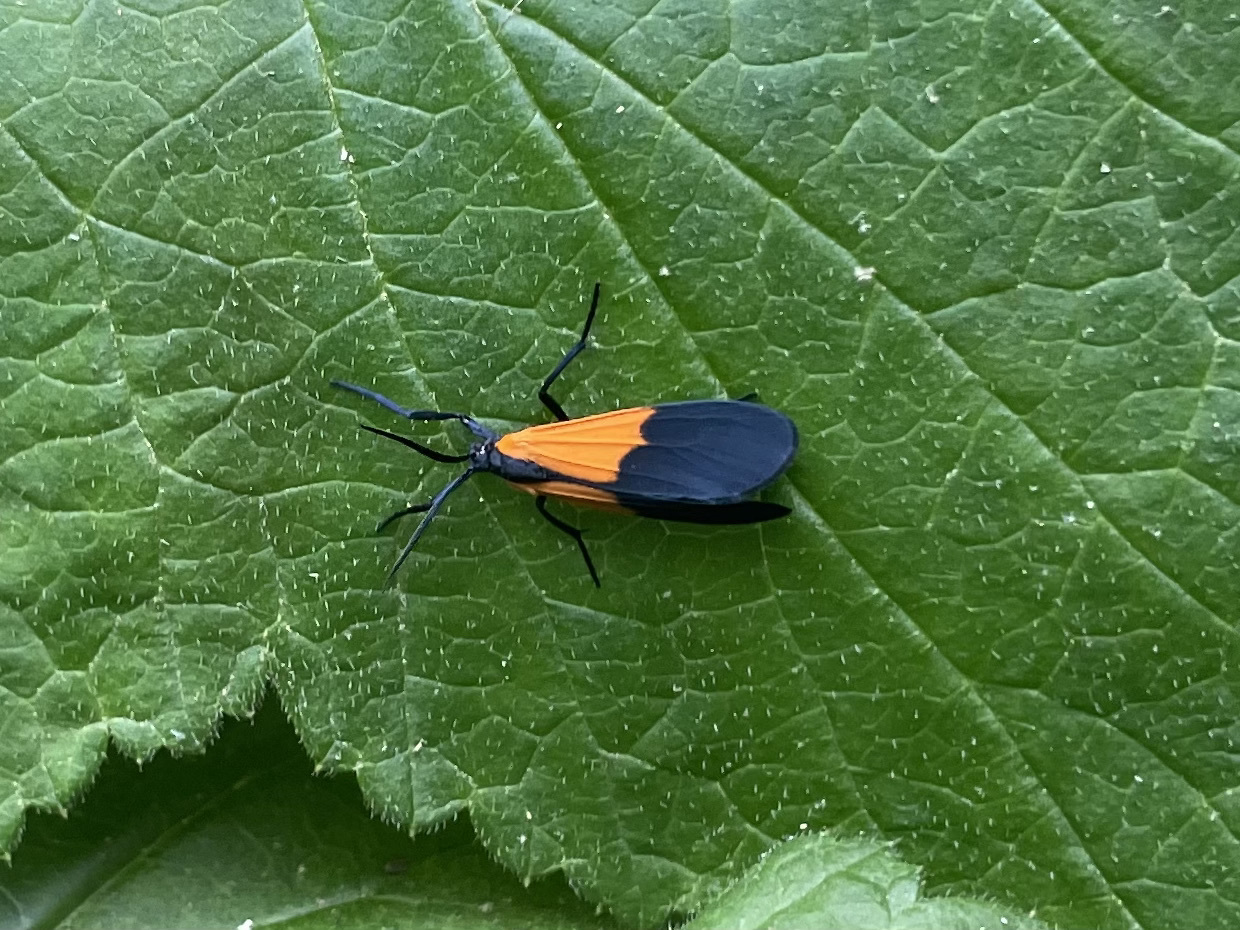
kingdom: Animalia
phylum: Arthropoda
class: Insecta
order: Lepidoptera
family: Erebidae
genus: Lycomorpha
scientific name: Lycomorpha pholus
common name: Black-and-yellow lichen moth
